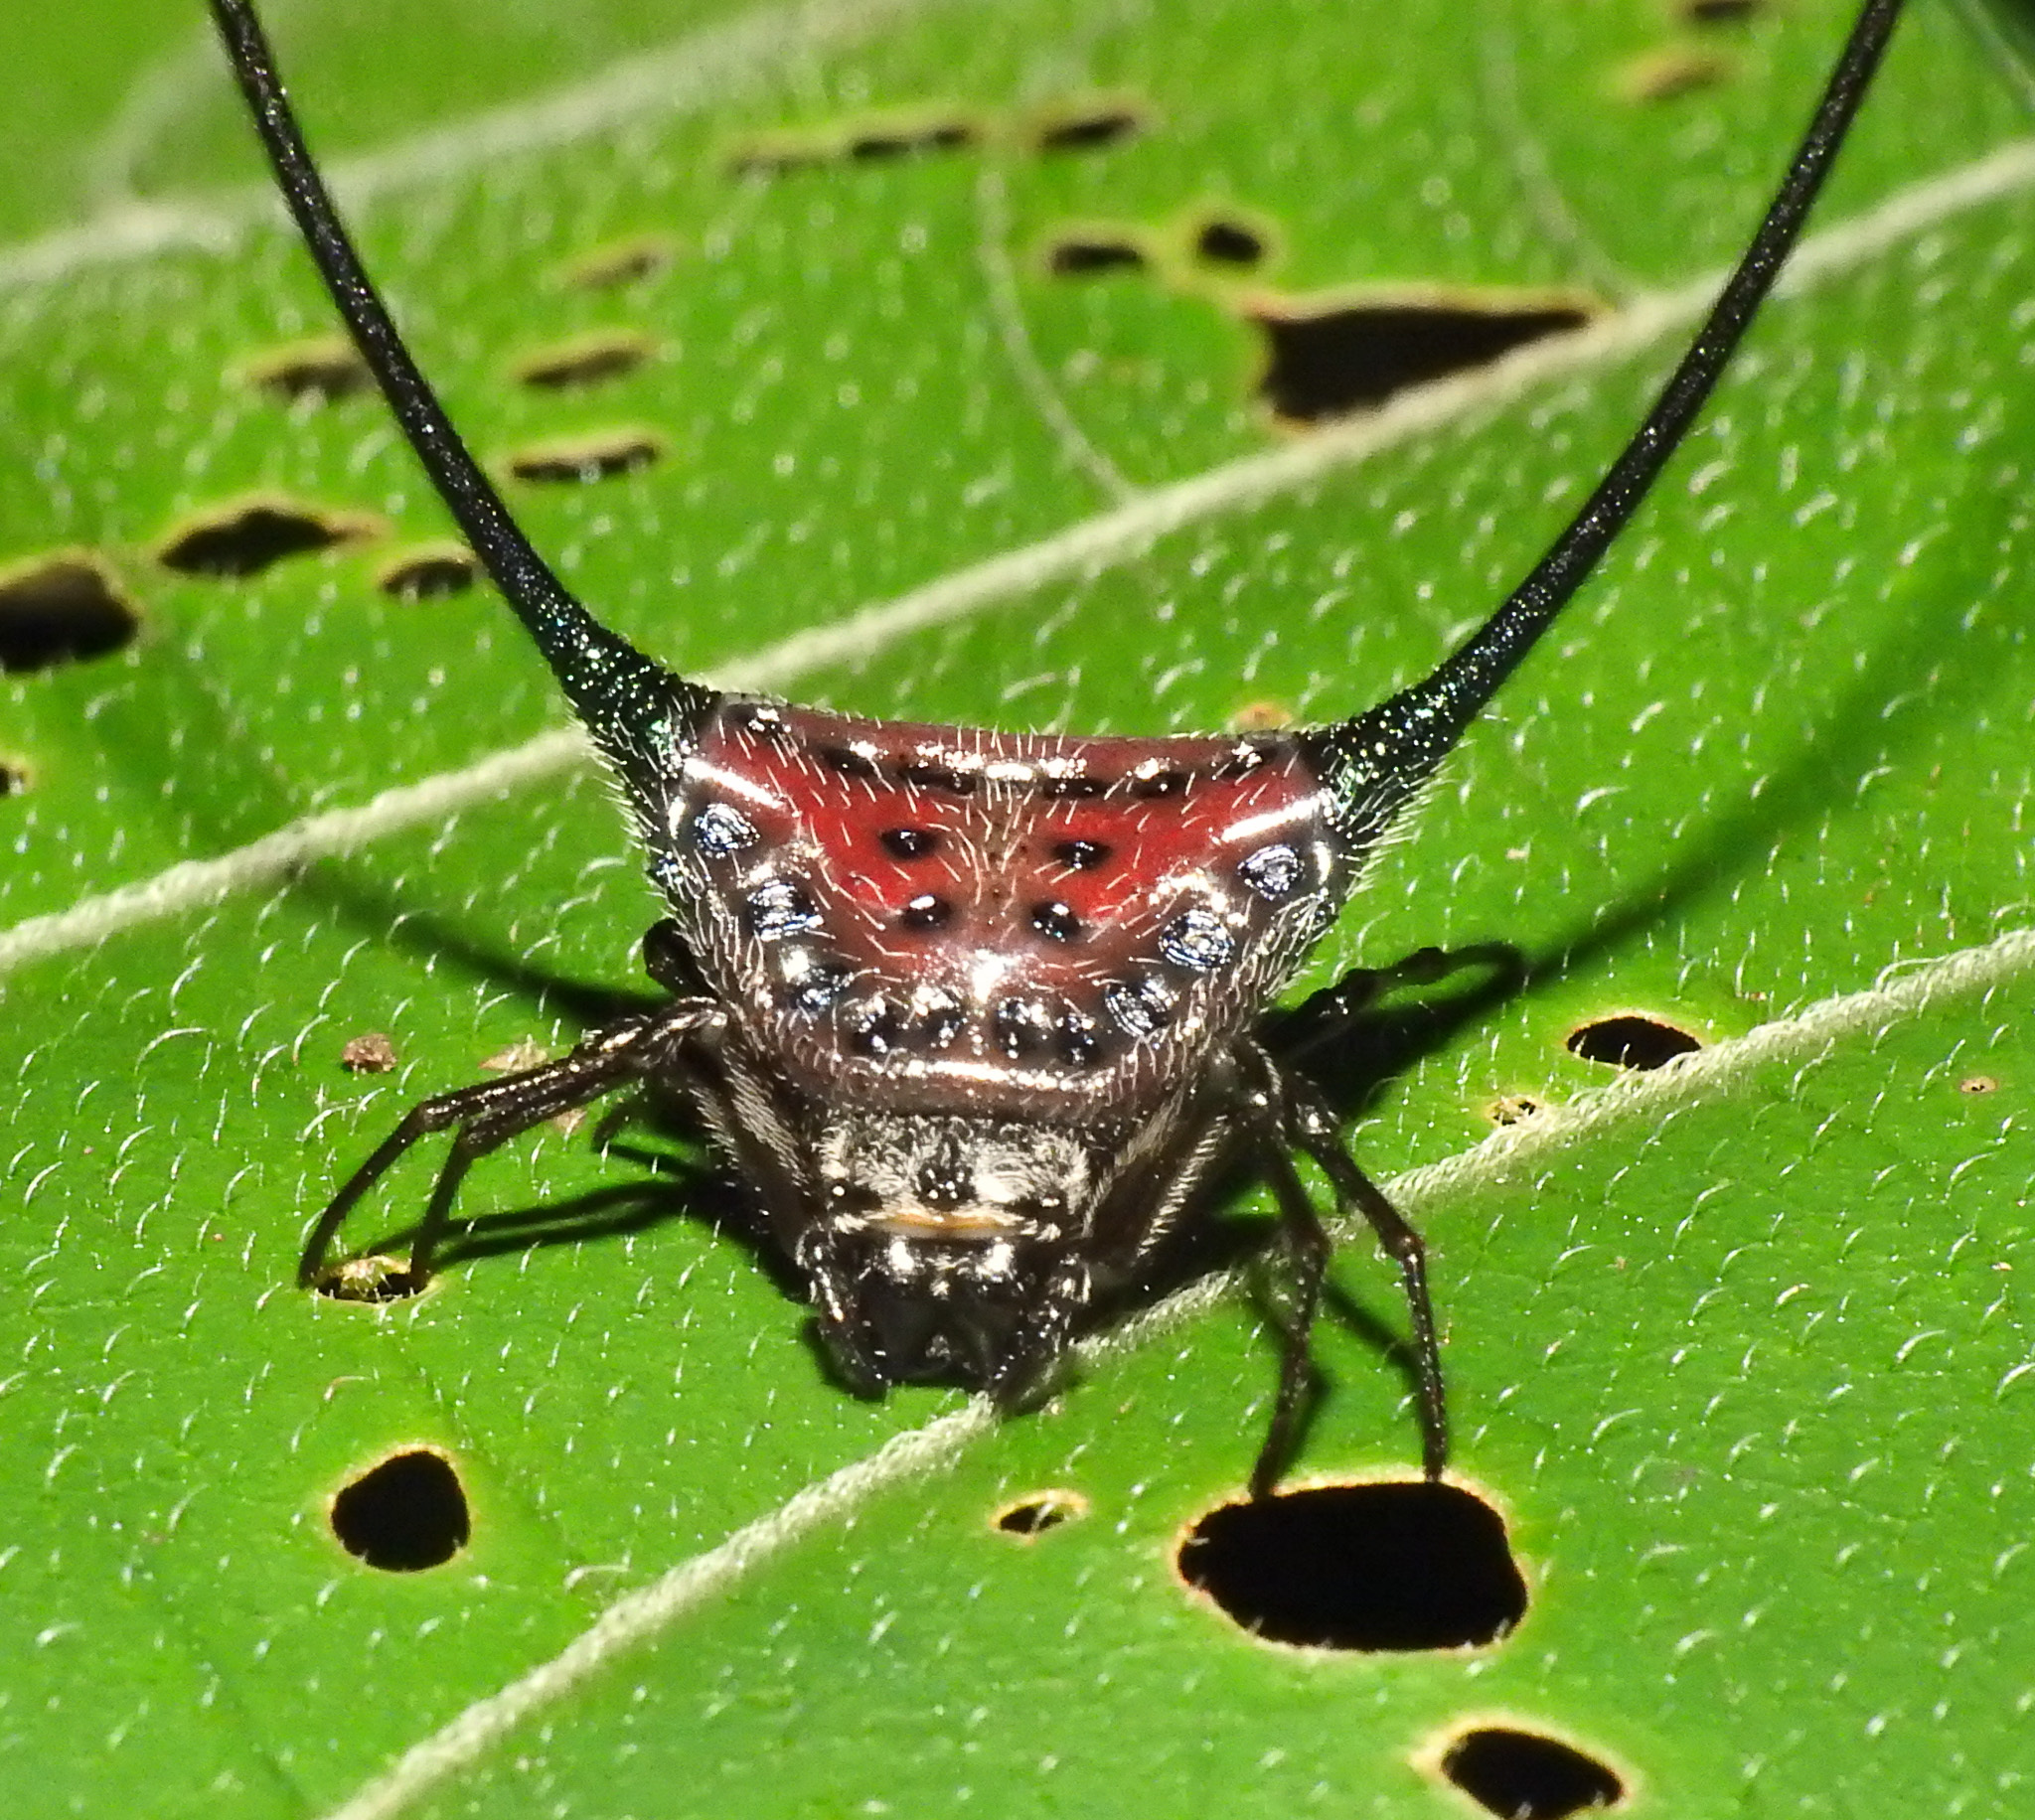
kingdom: Animalia
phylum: Arthropoda
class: Arachnida
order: Araneae
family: Araneidae
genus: Macracantha
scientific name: Macracantha arcuata
